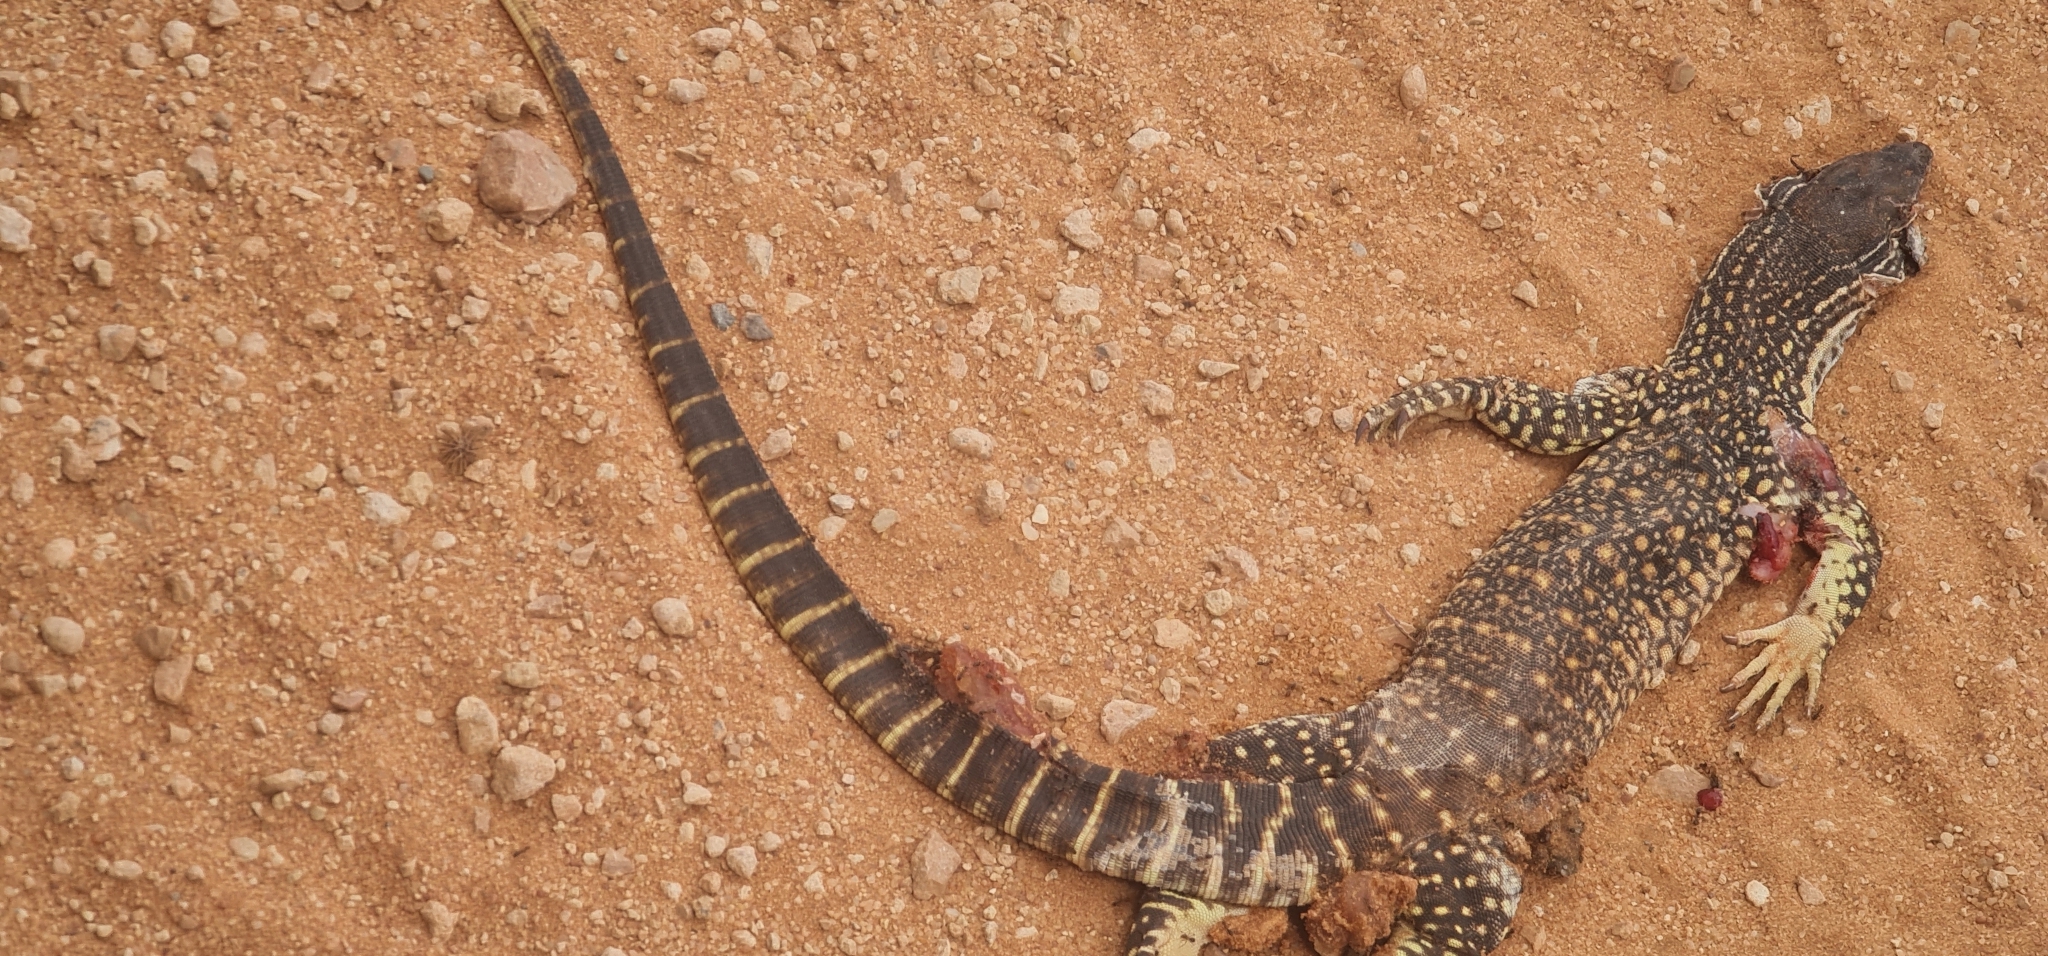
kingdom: Animalia
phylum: Chordata
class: Squamata
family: Varanidae
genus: Varanus
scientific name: Varanus gouldii
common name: Gould's goanna
